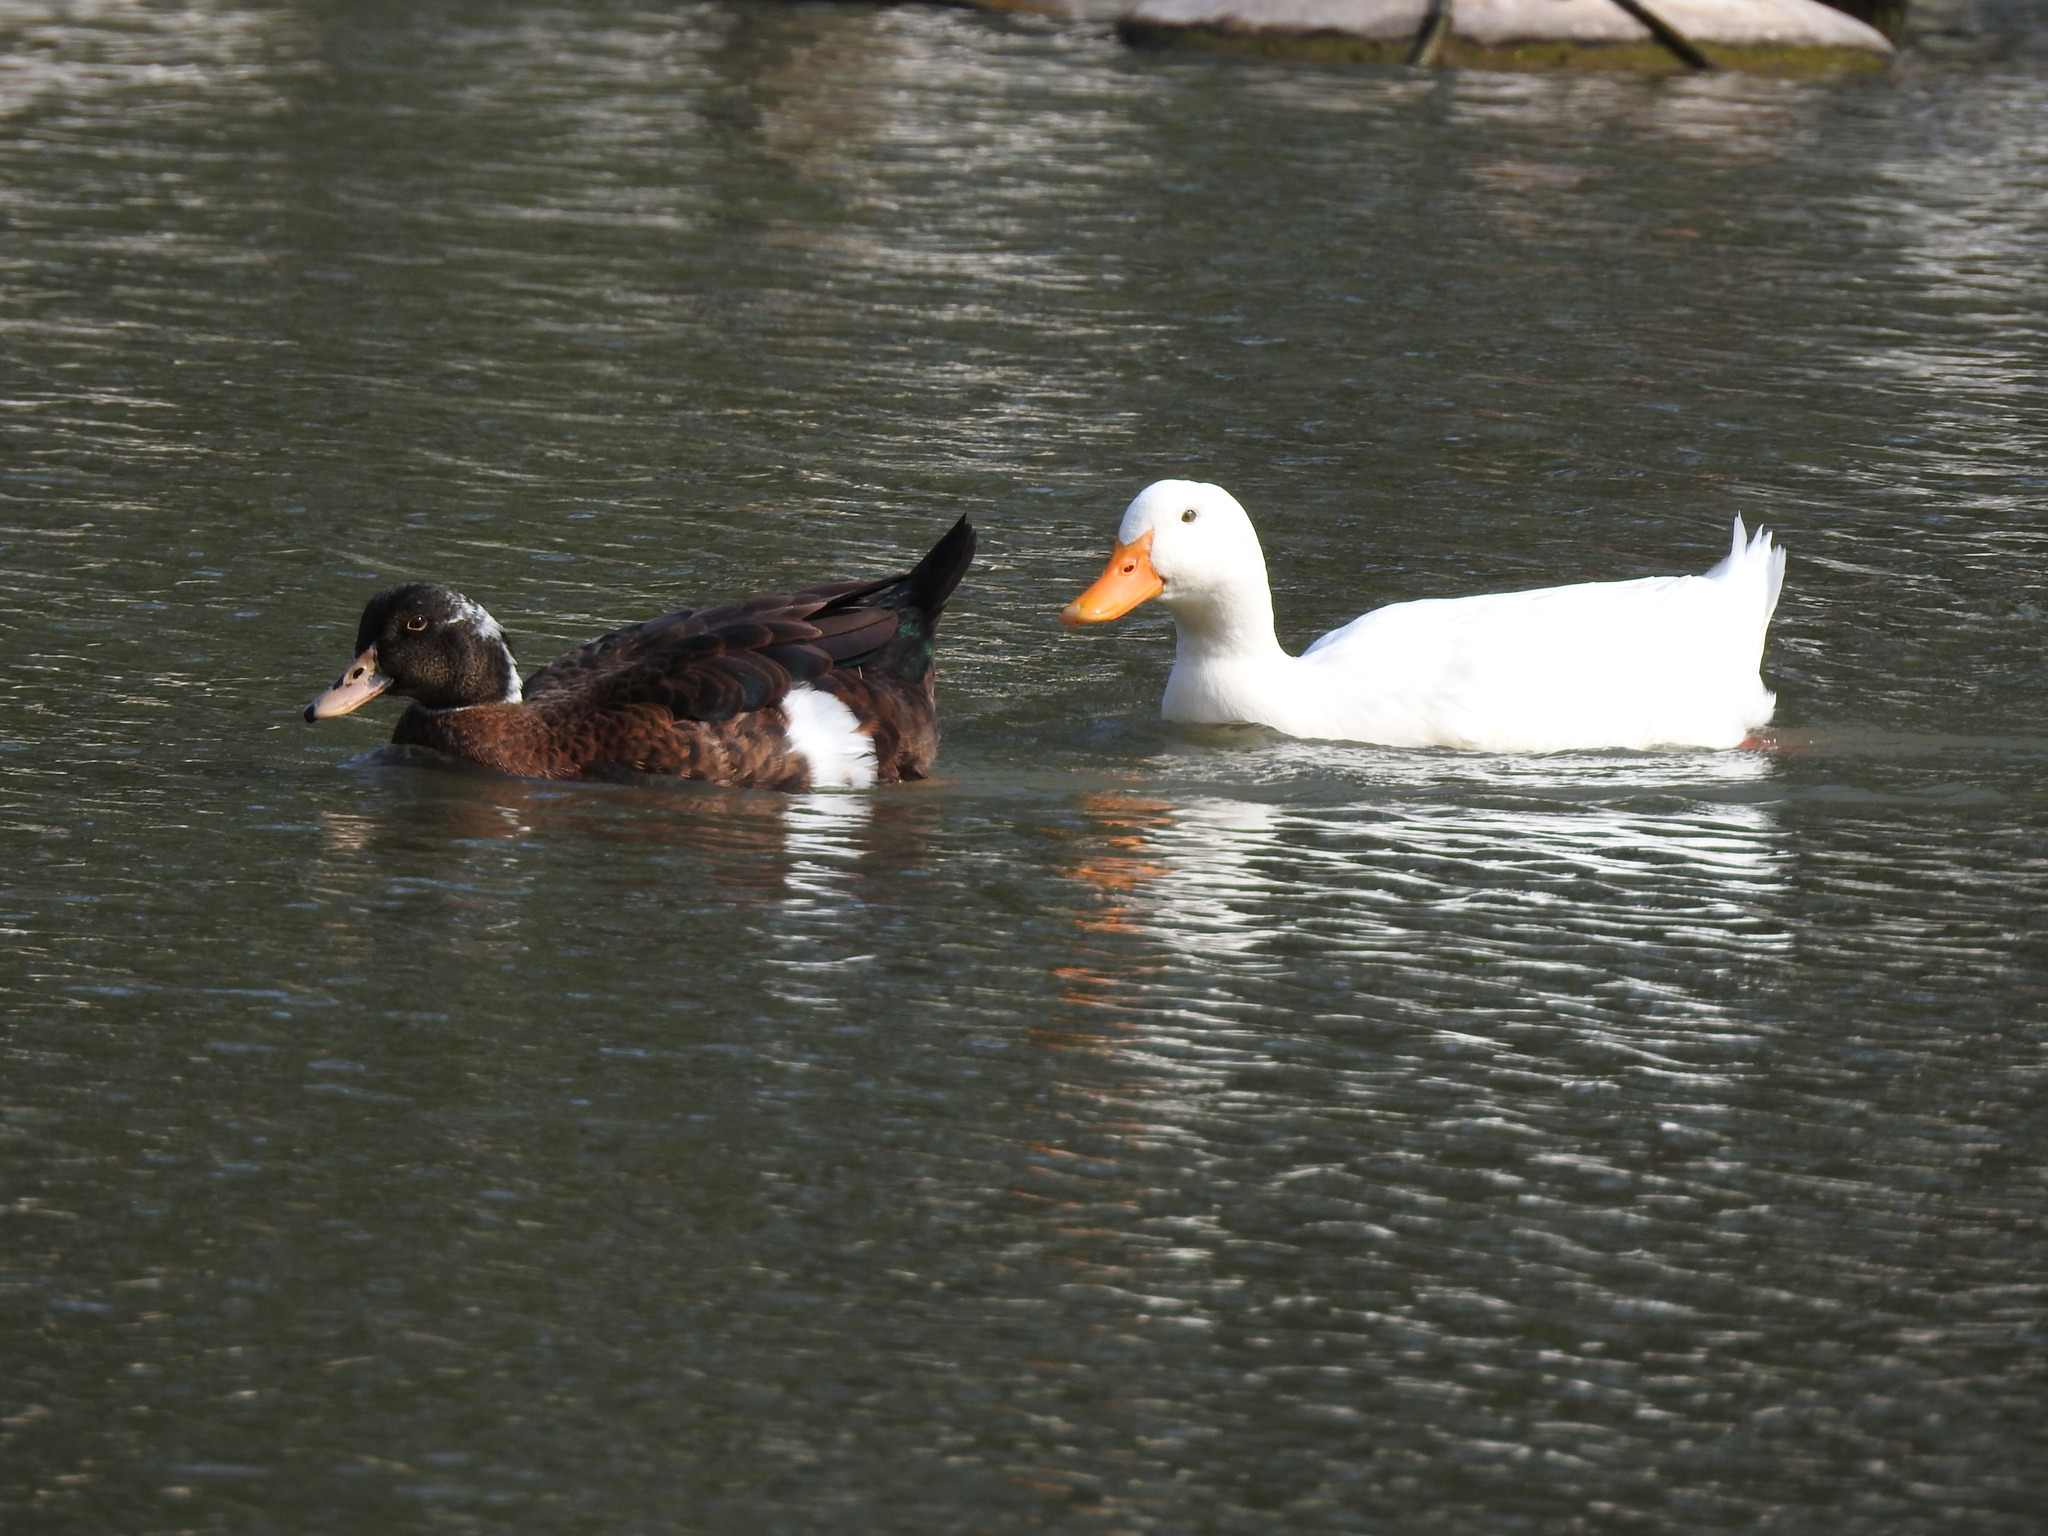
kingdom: Animalia
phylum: Chordata
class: Aves
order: Anseriformes
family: Anatidae
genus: Anas
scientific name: Anas platyrhynchos
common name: Mallard
